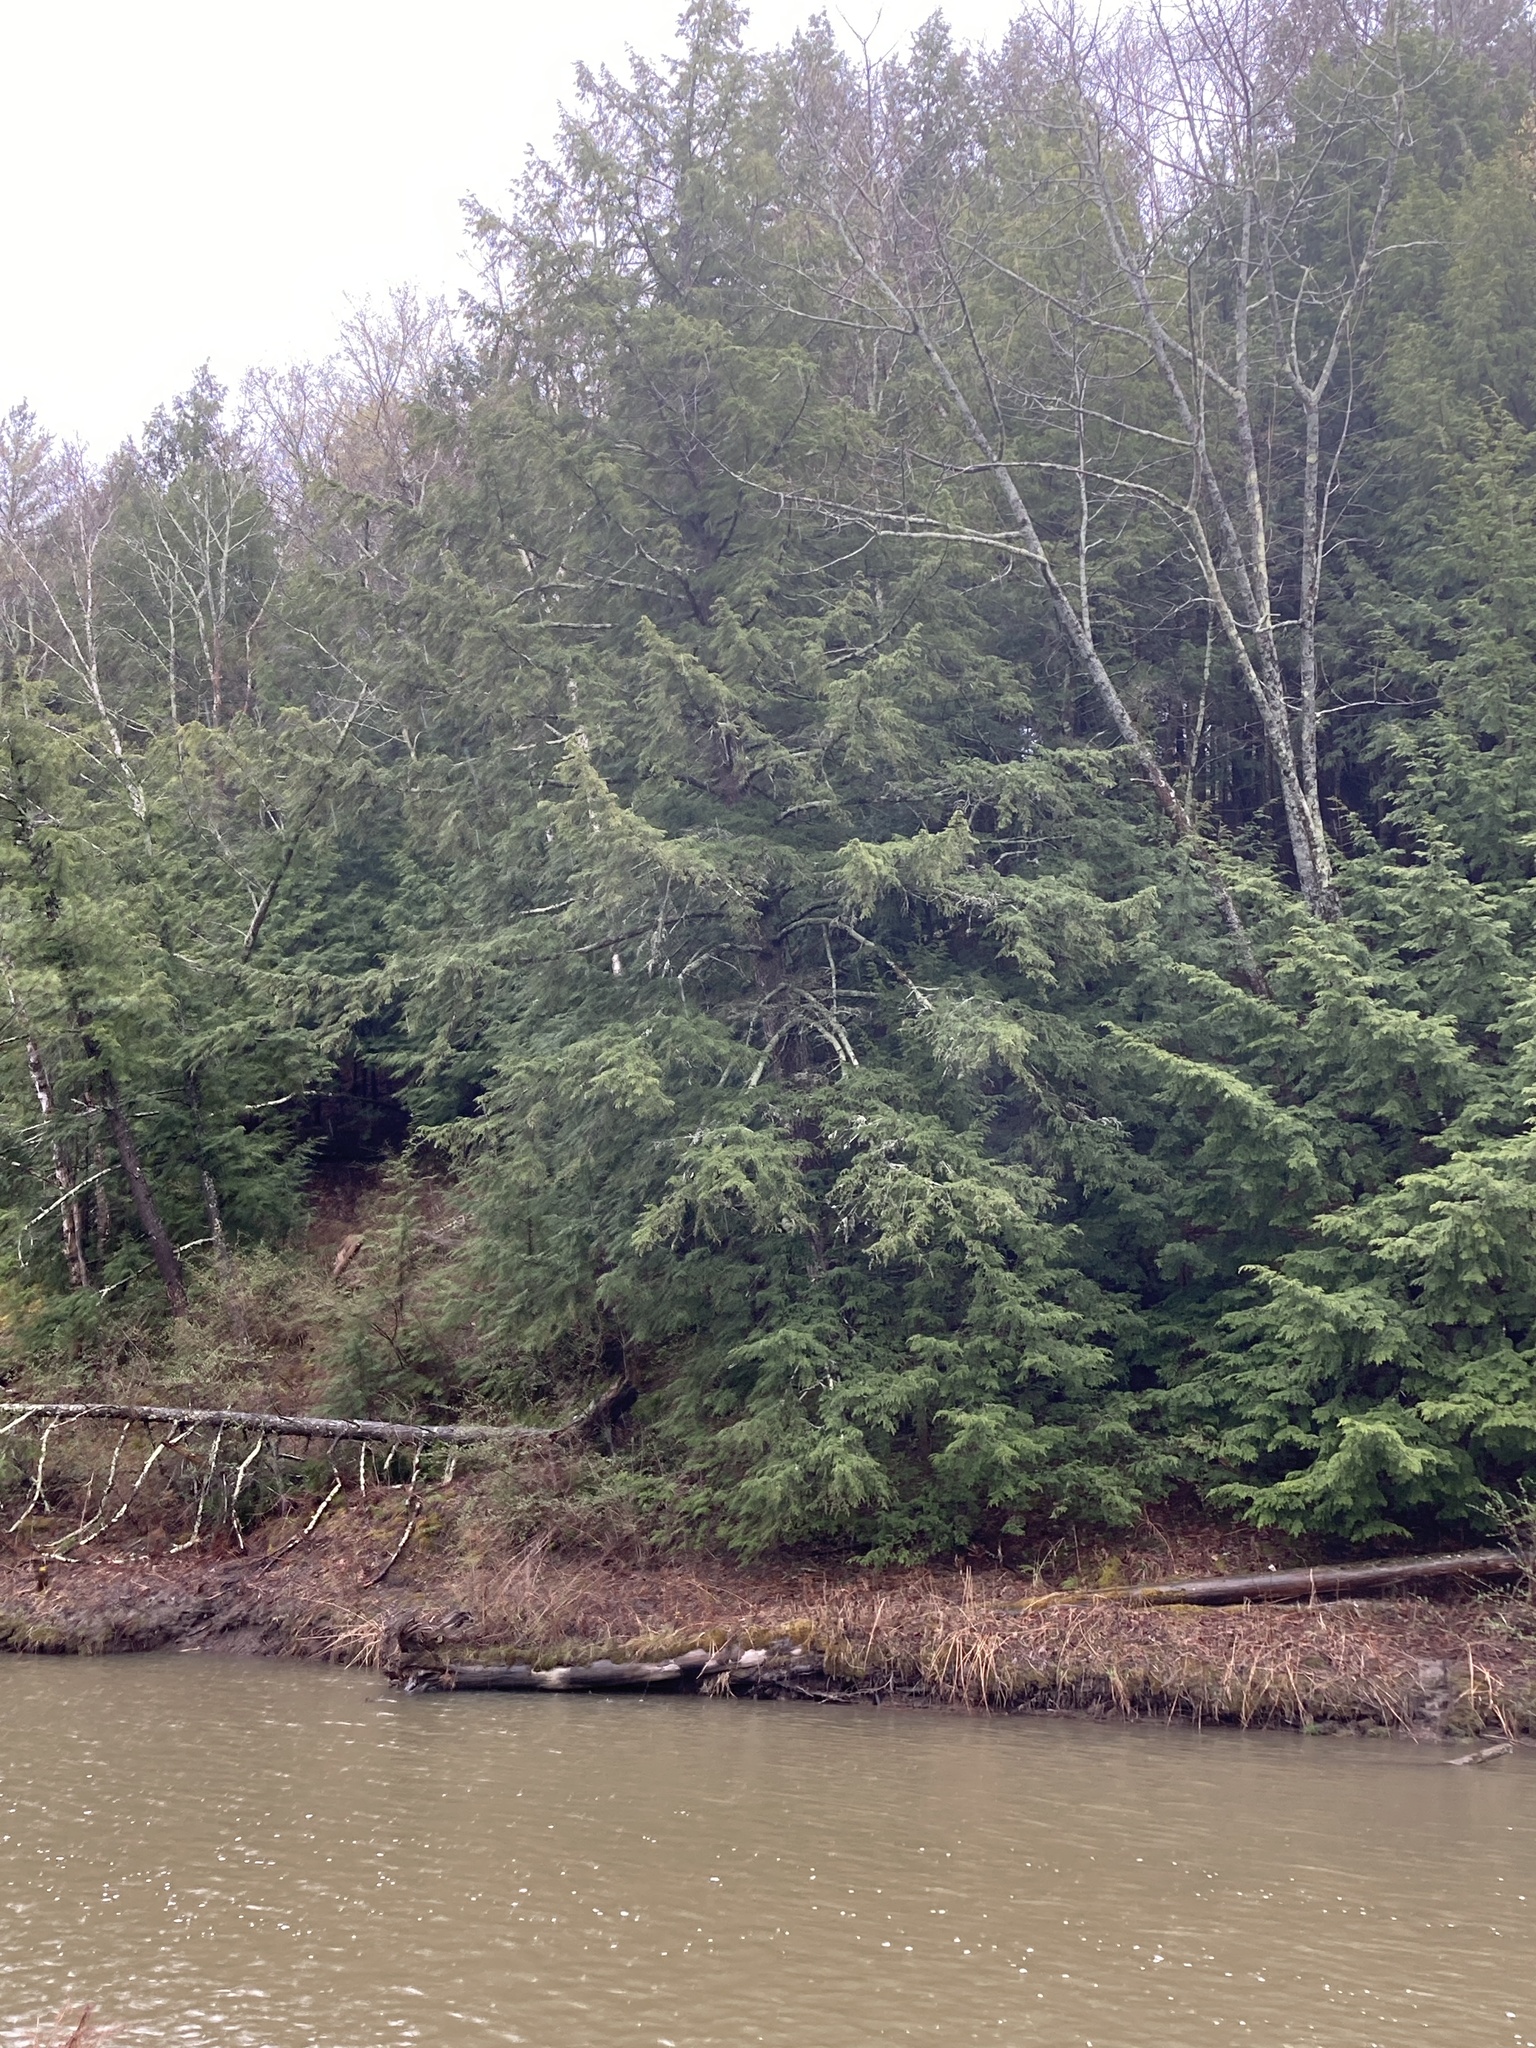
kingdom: Plantae
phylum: Tracheophyta
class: Pinopsida
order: Pinales
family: Pinaceae
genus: Tsuga
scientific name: Tsuga canadensis
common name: Eastern hemlock
